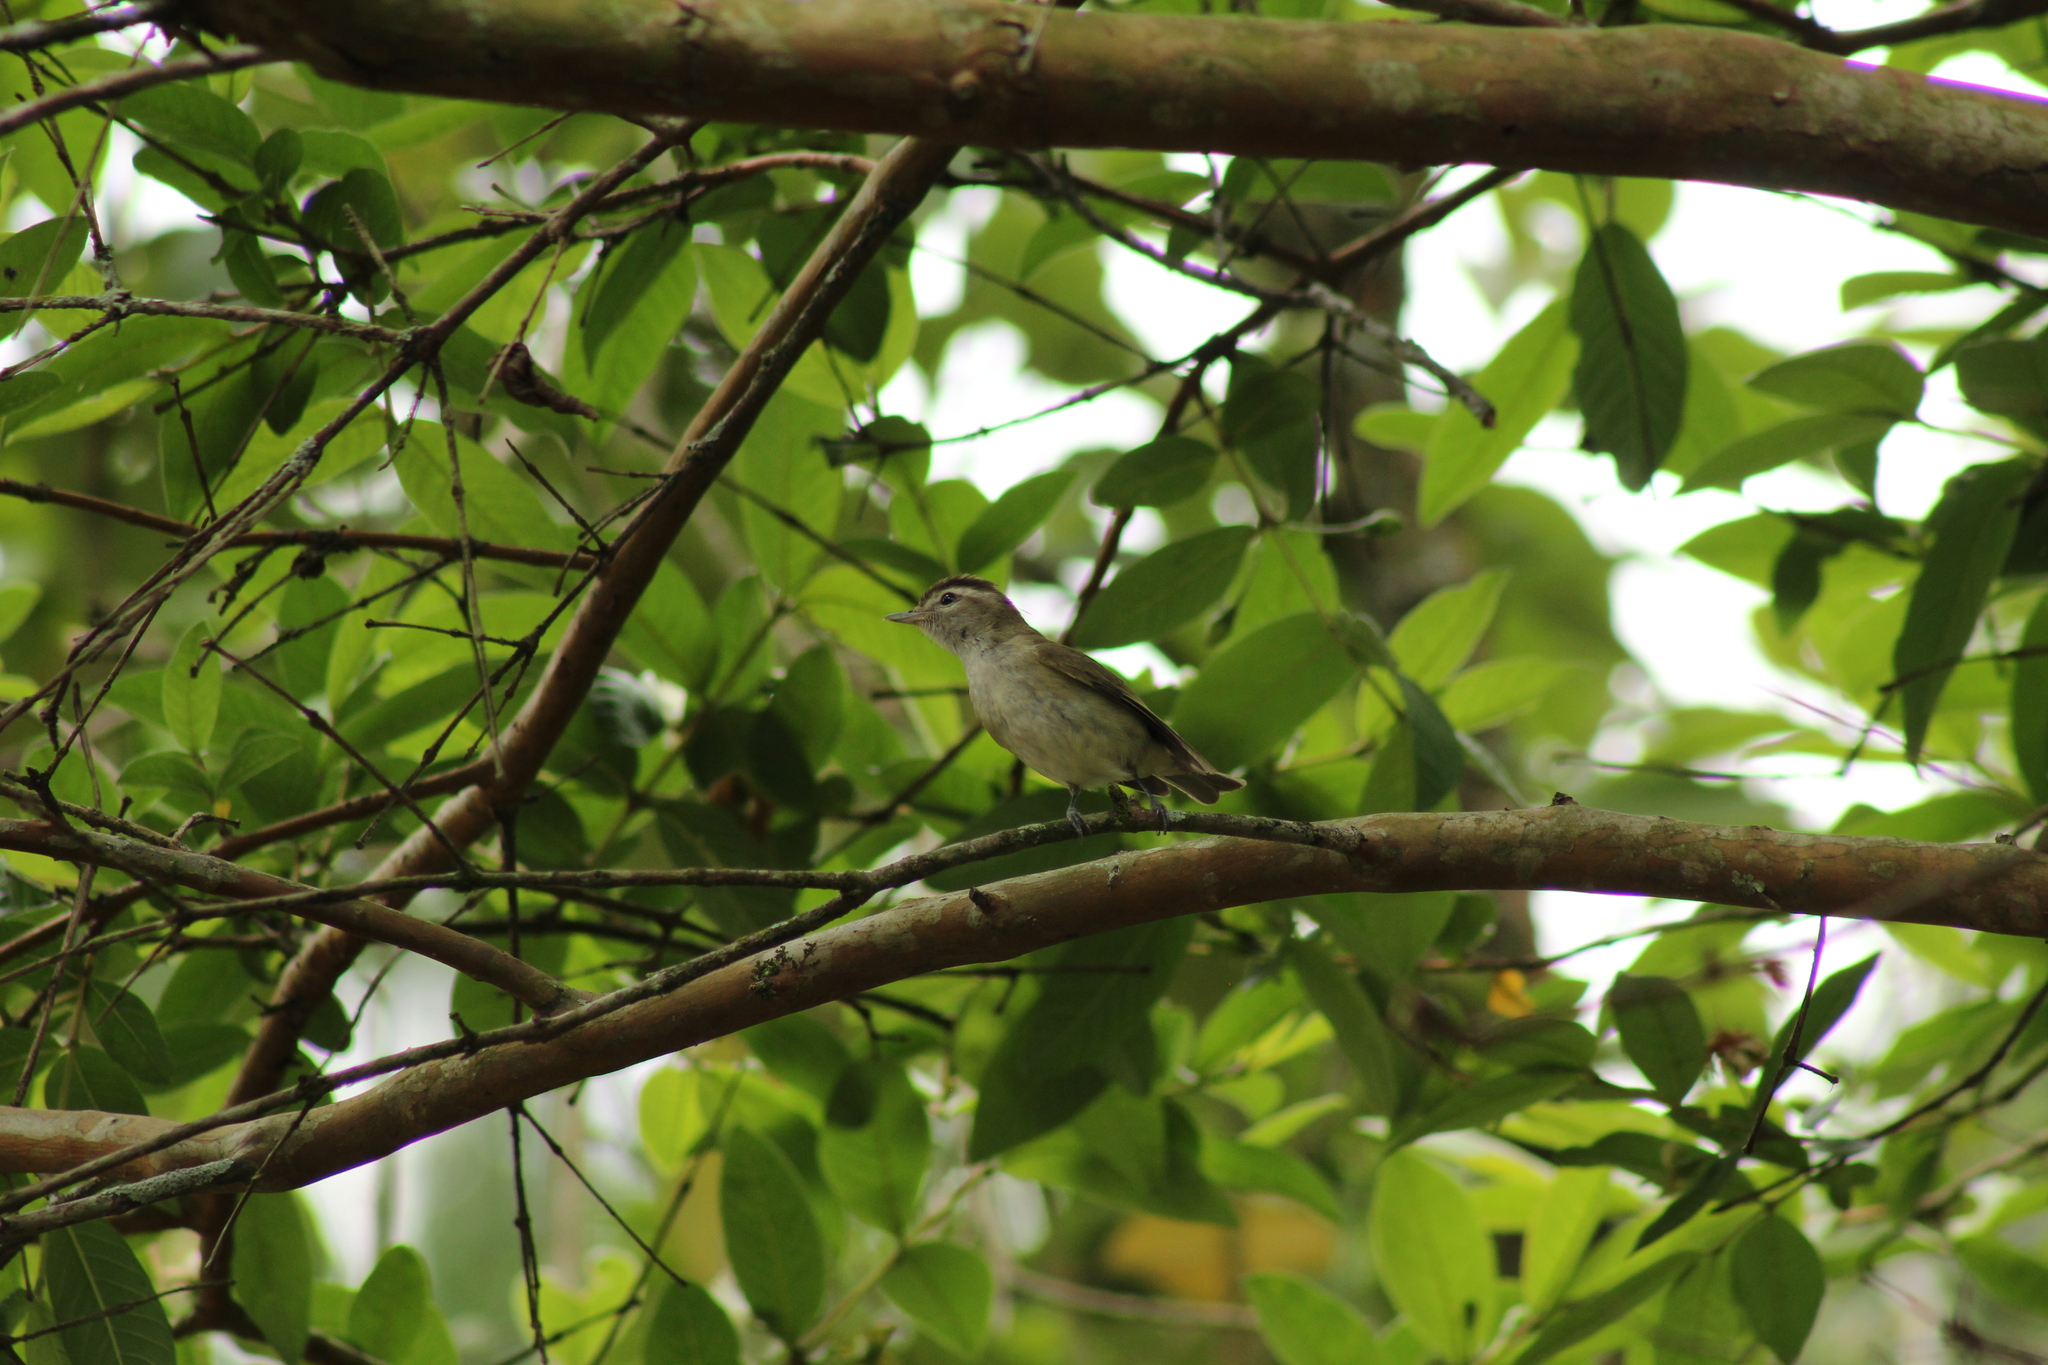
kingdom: Animalia
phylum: Chordata
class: Aves
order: Passeriformes
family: Vireonidae
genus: Vireo
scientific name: Vireo leucophrys
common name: Brown-capped vireo
